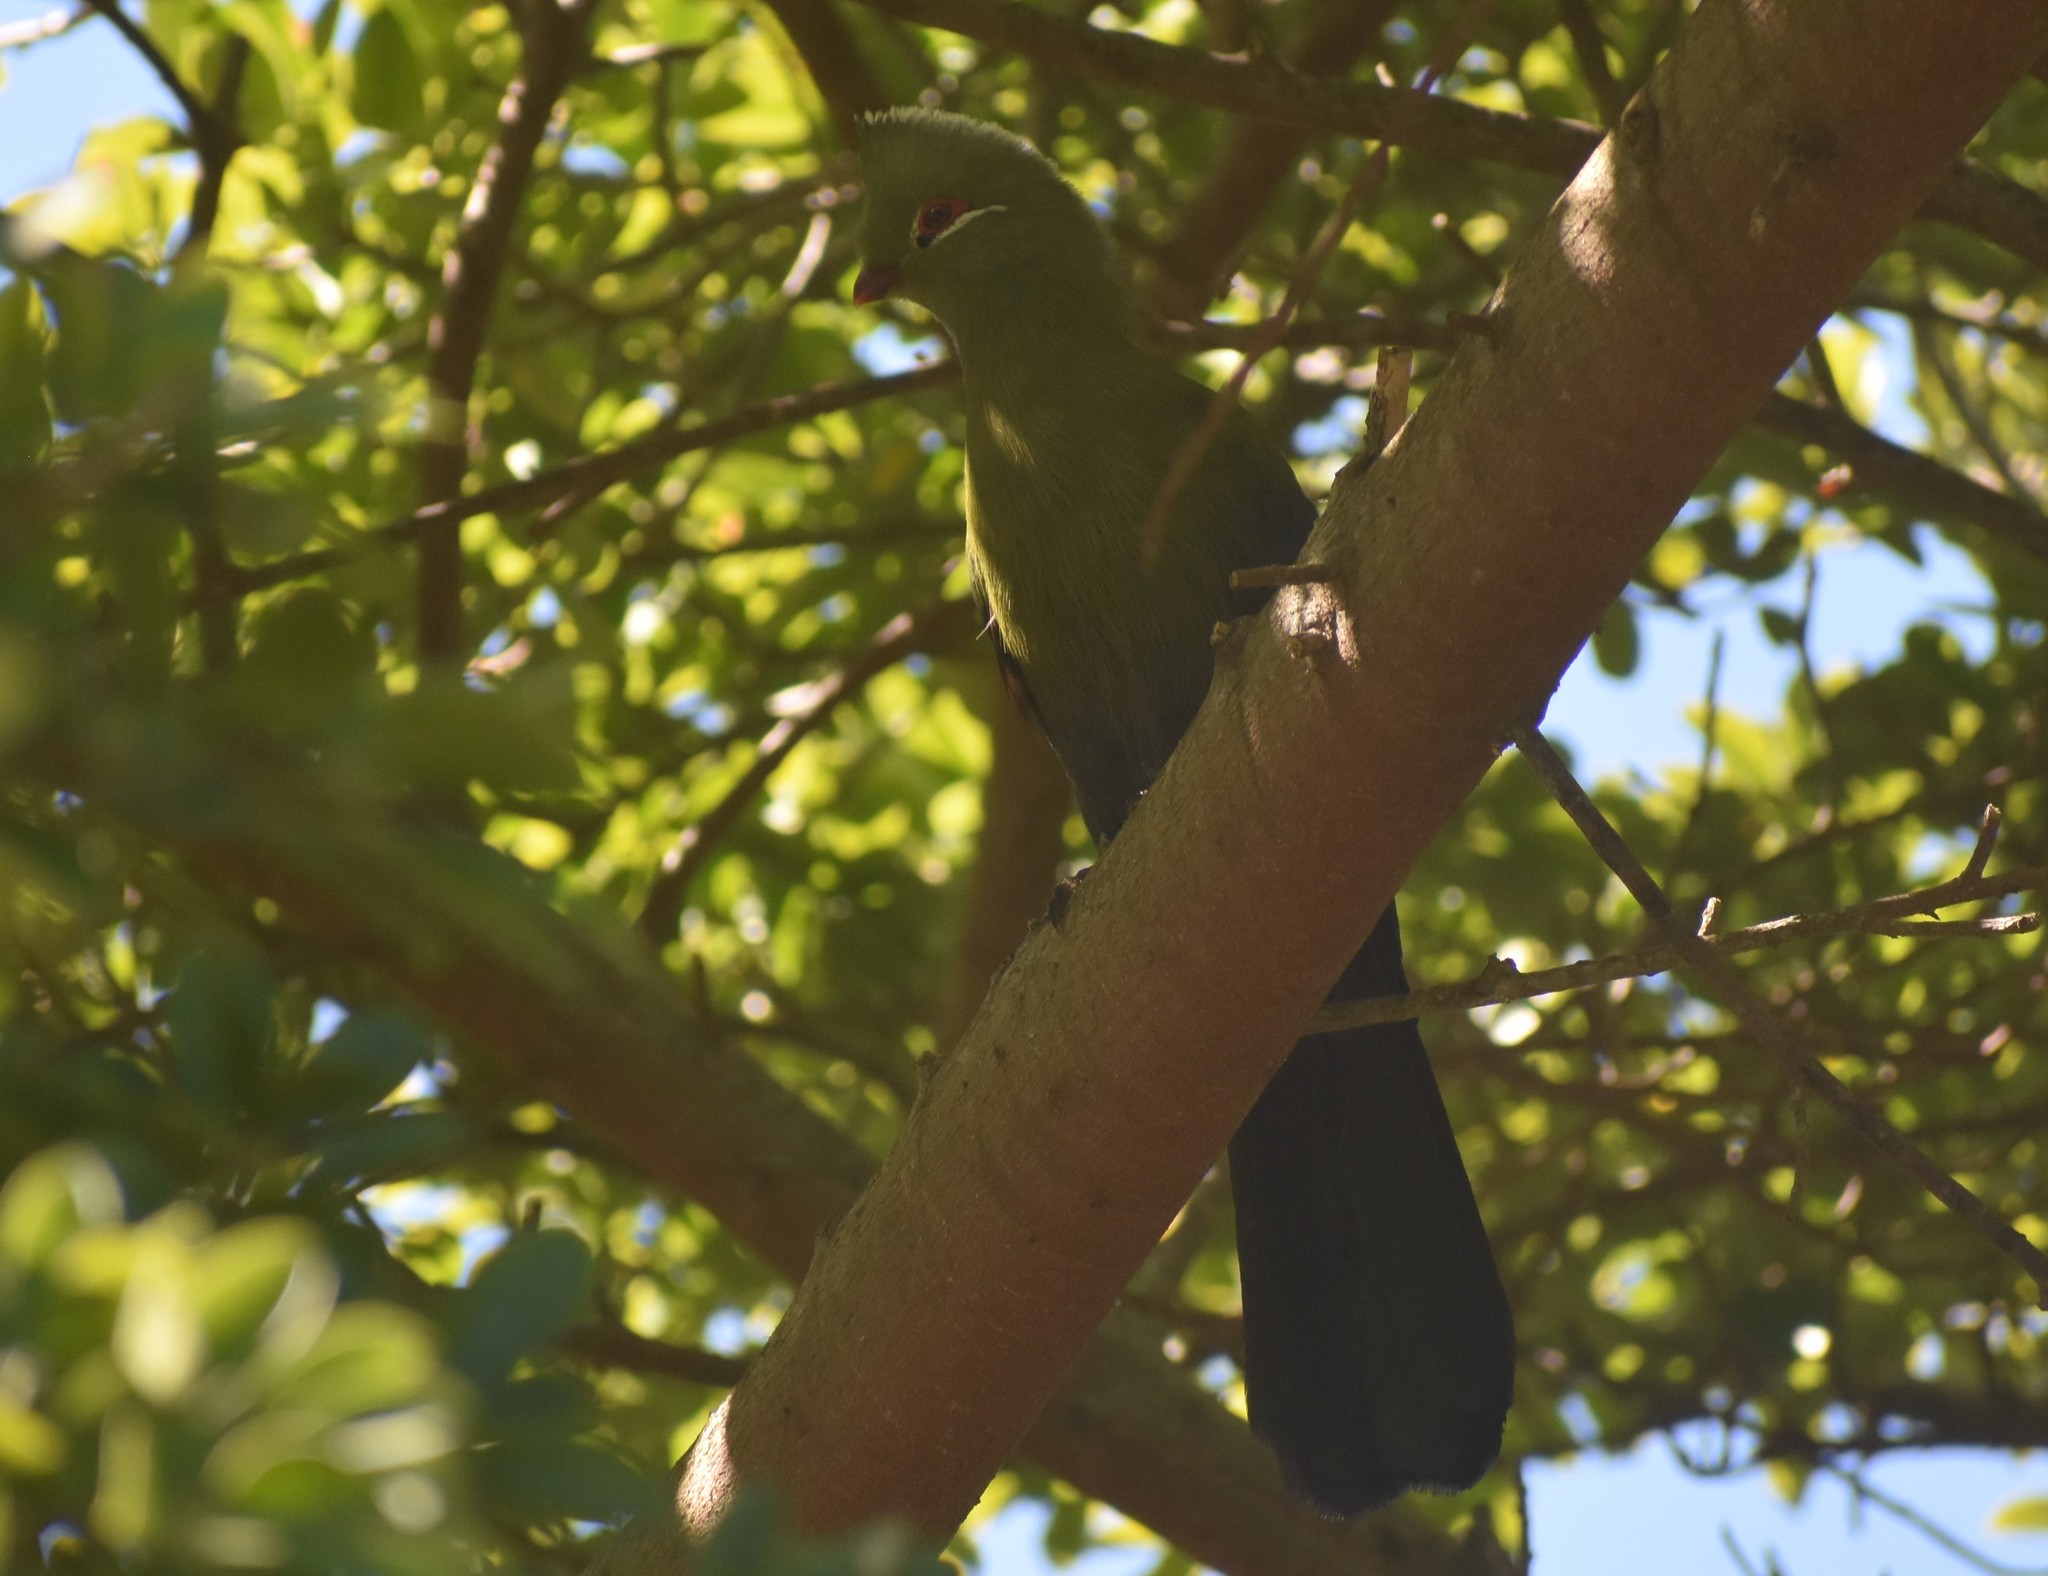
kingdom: Animalia
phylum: Chordata
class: Aves
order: Musophagiformes
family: Musophagidae
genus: Tauraco
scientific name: Tauraco corythaix
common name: Knysna turaco
